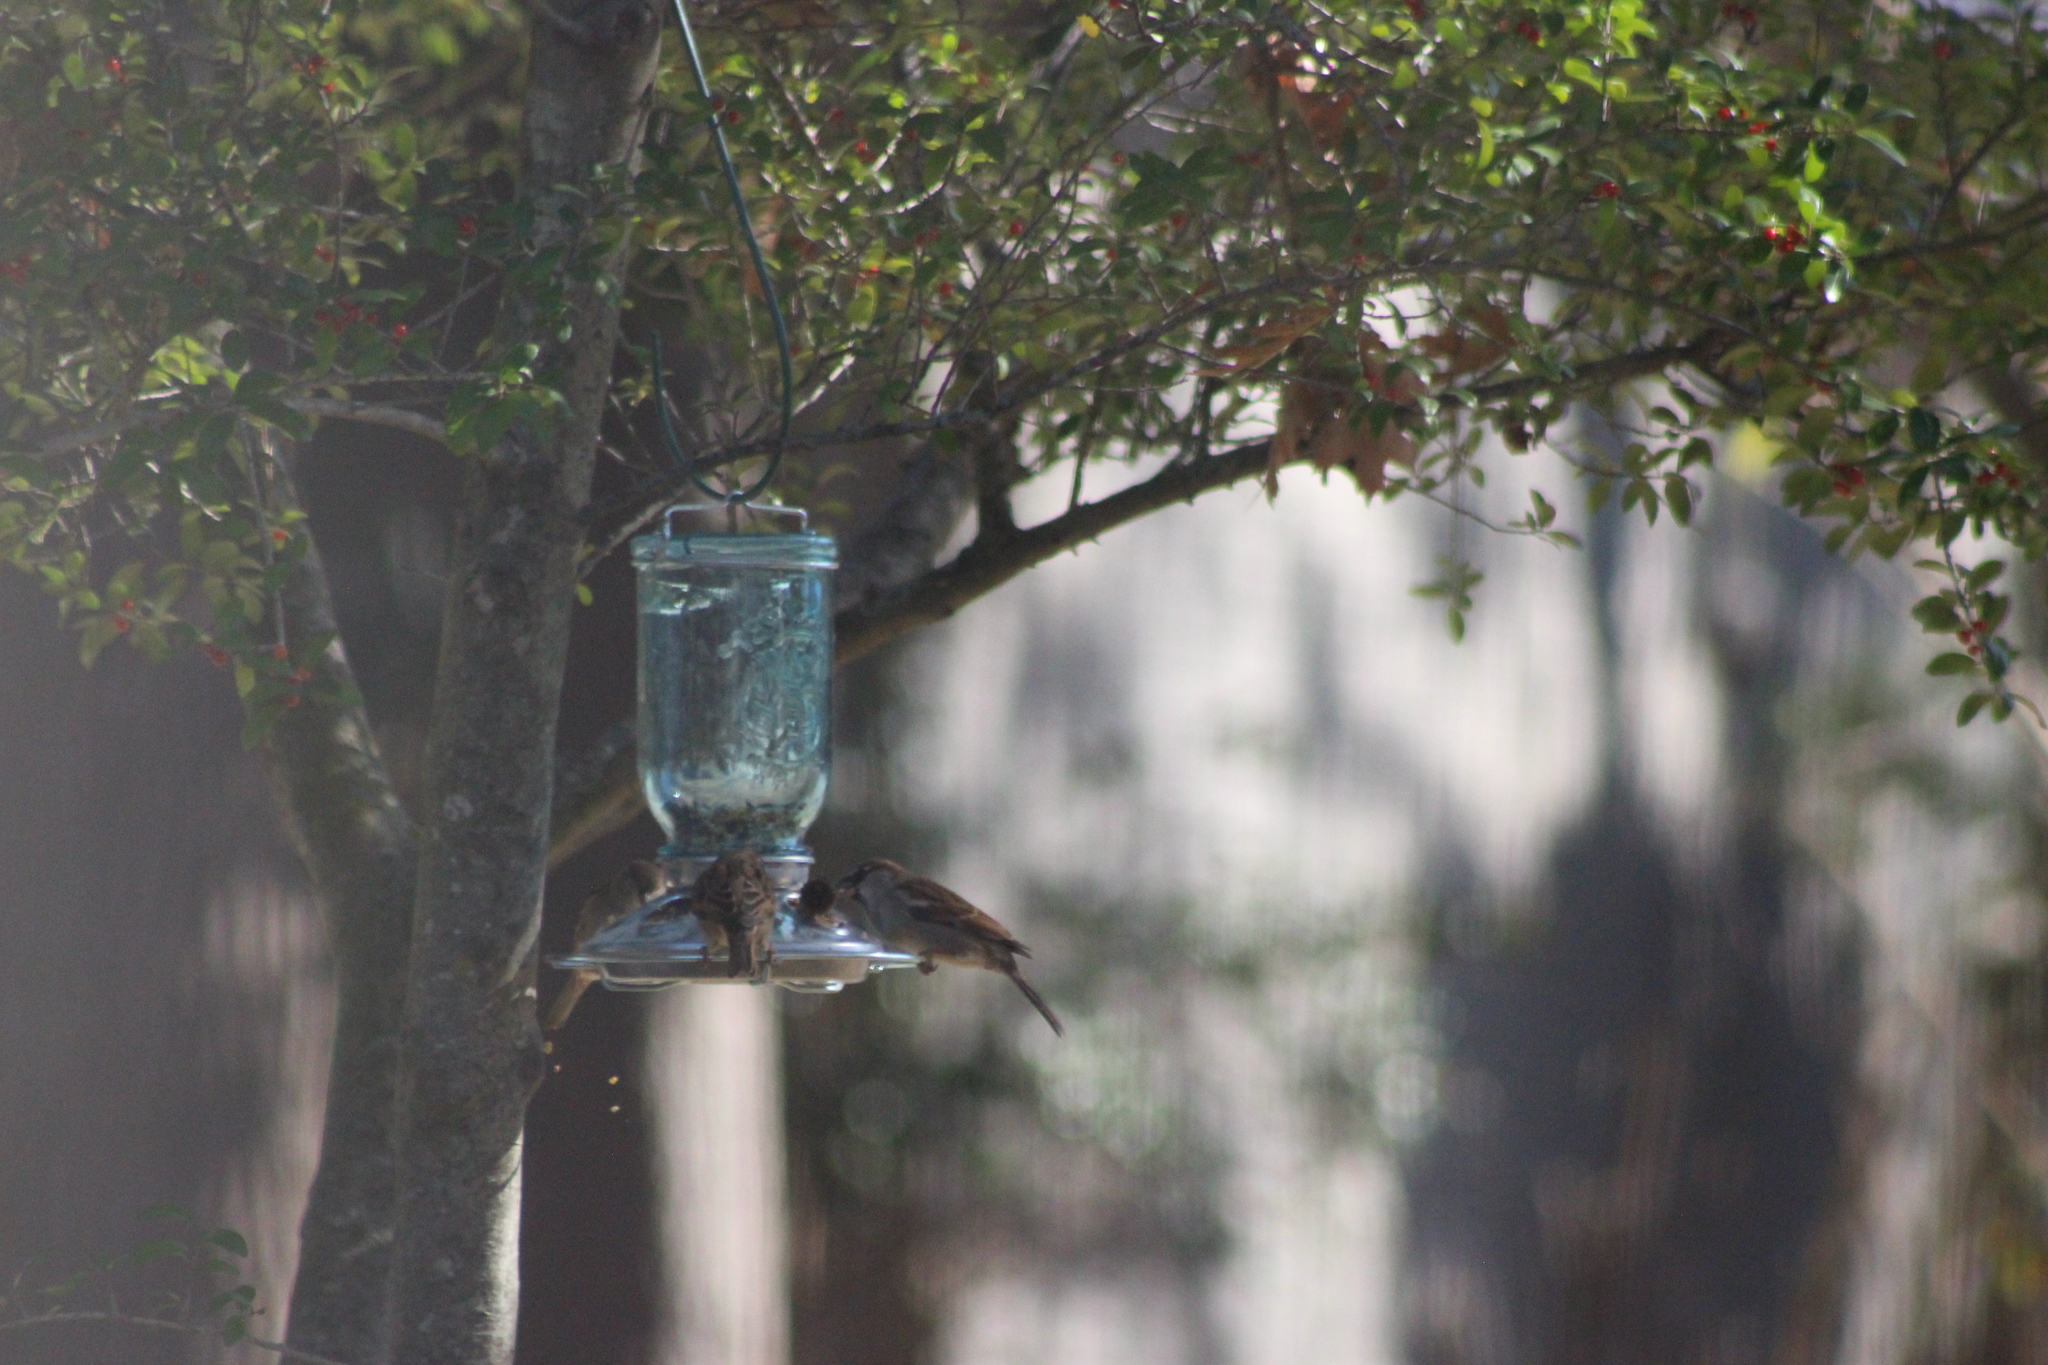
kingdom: Animalia
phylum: Chordata
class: Aves
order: Passeriformes
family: Passeridae
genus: Passer
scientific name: Passer domesticus
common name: House sparrow
